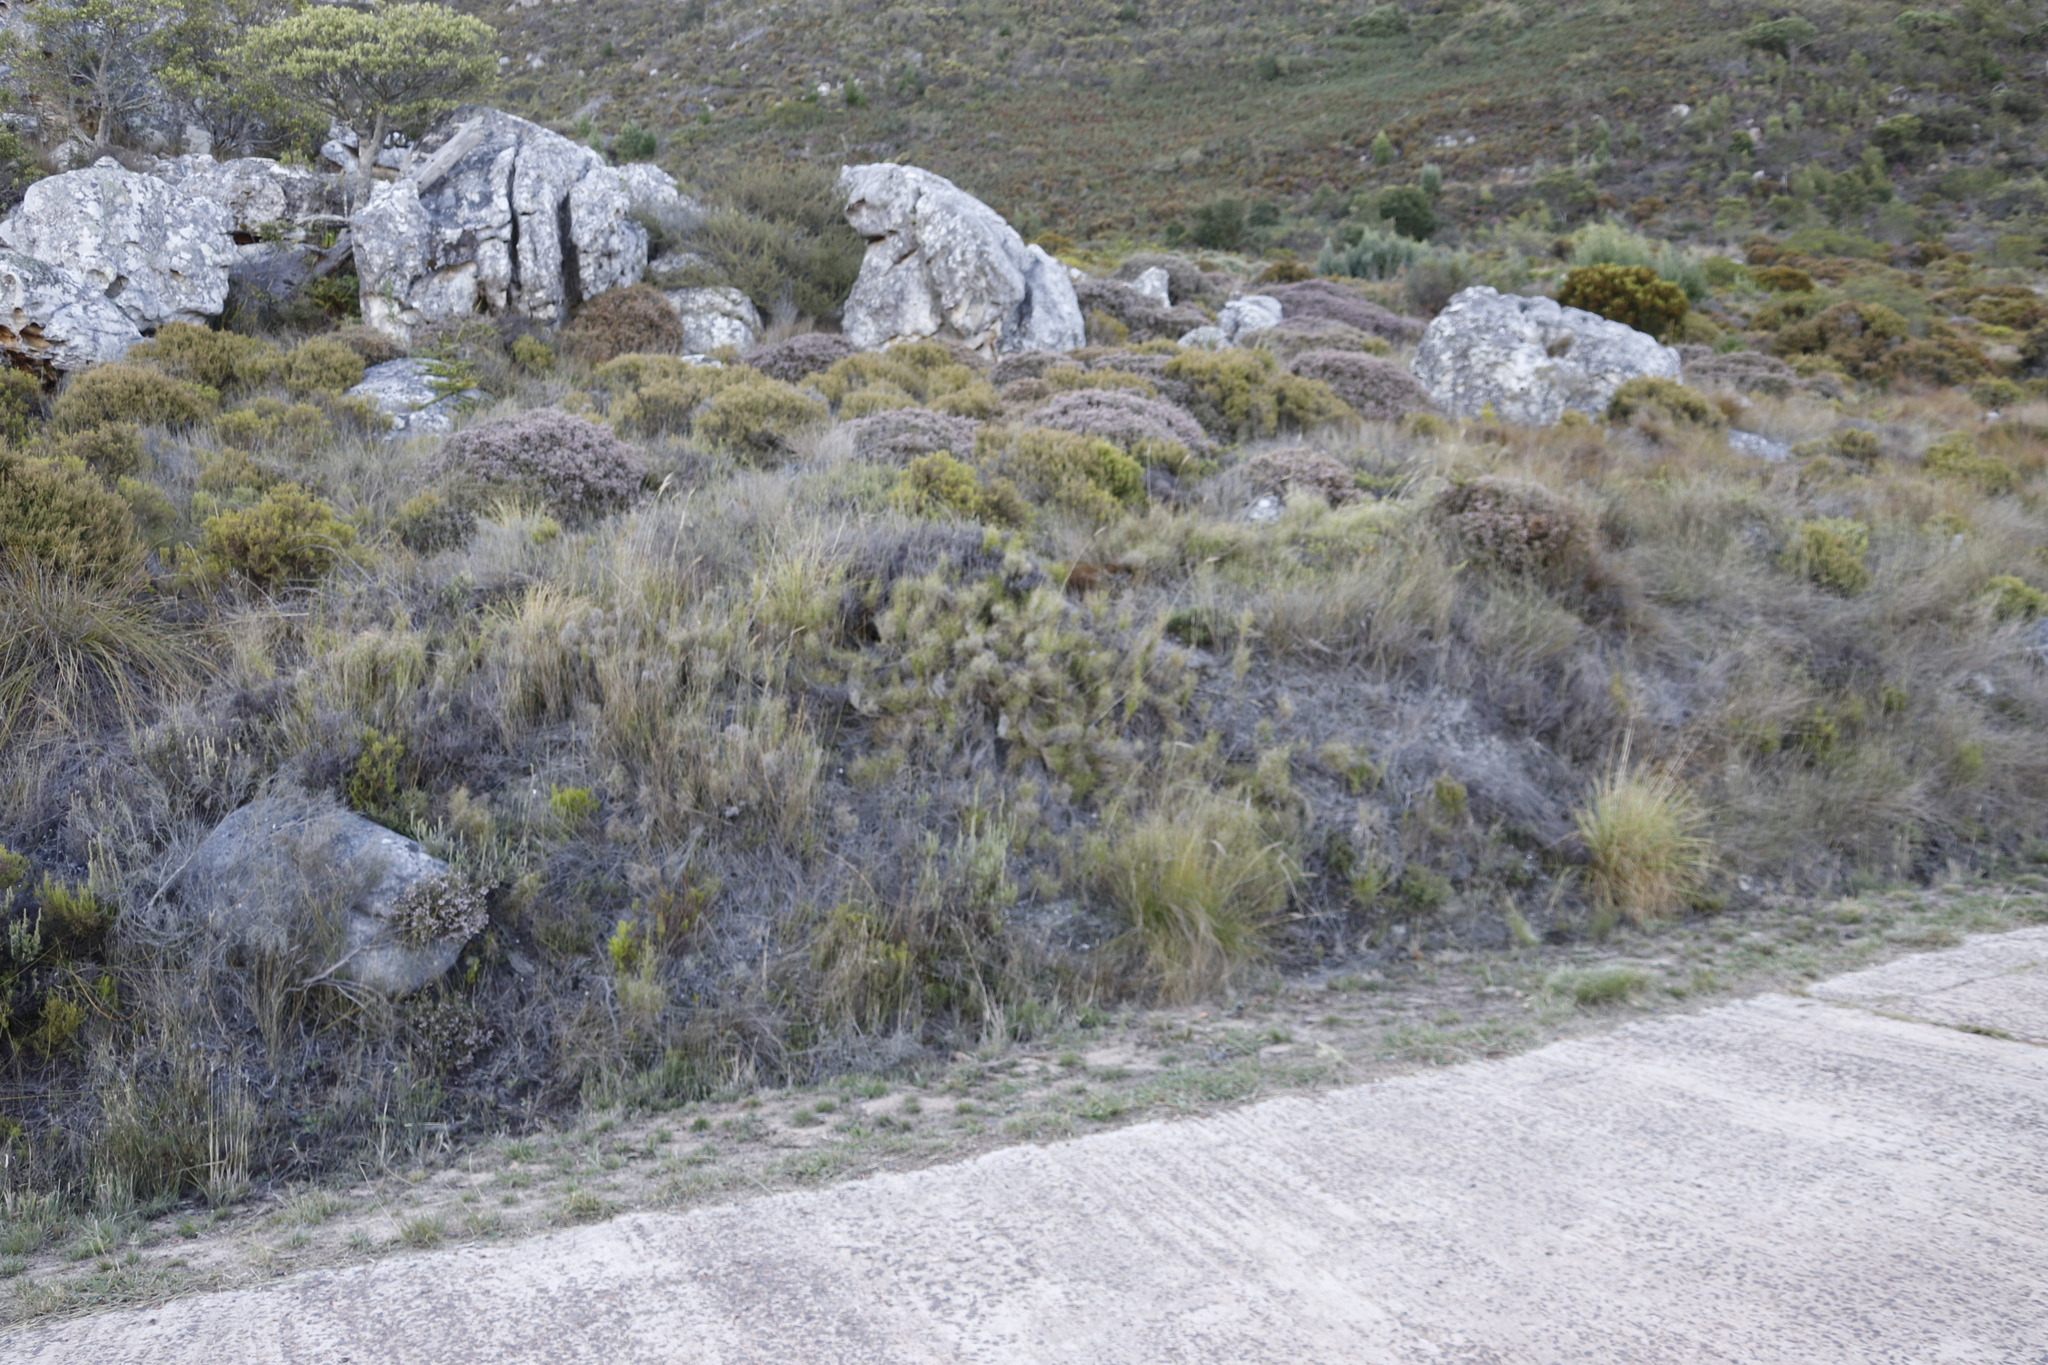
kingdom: Plantae
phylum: Tracheophyta
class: Liliopsida
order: Poales
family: Poaceae
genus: Pseudopentameris
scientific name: Pseudopentameris macrantha
